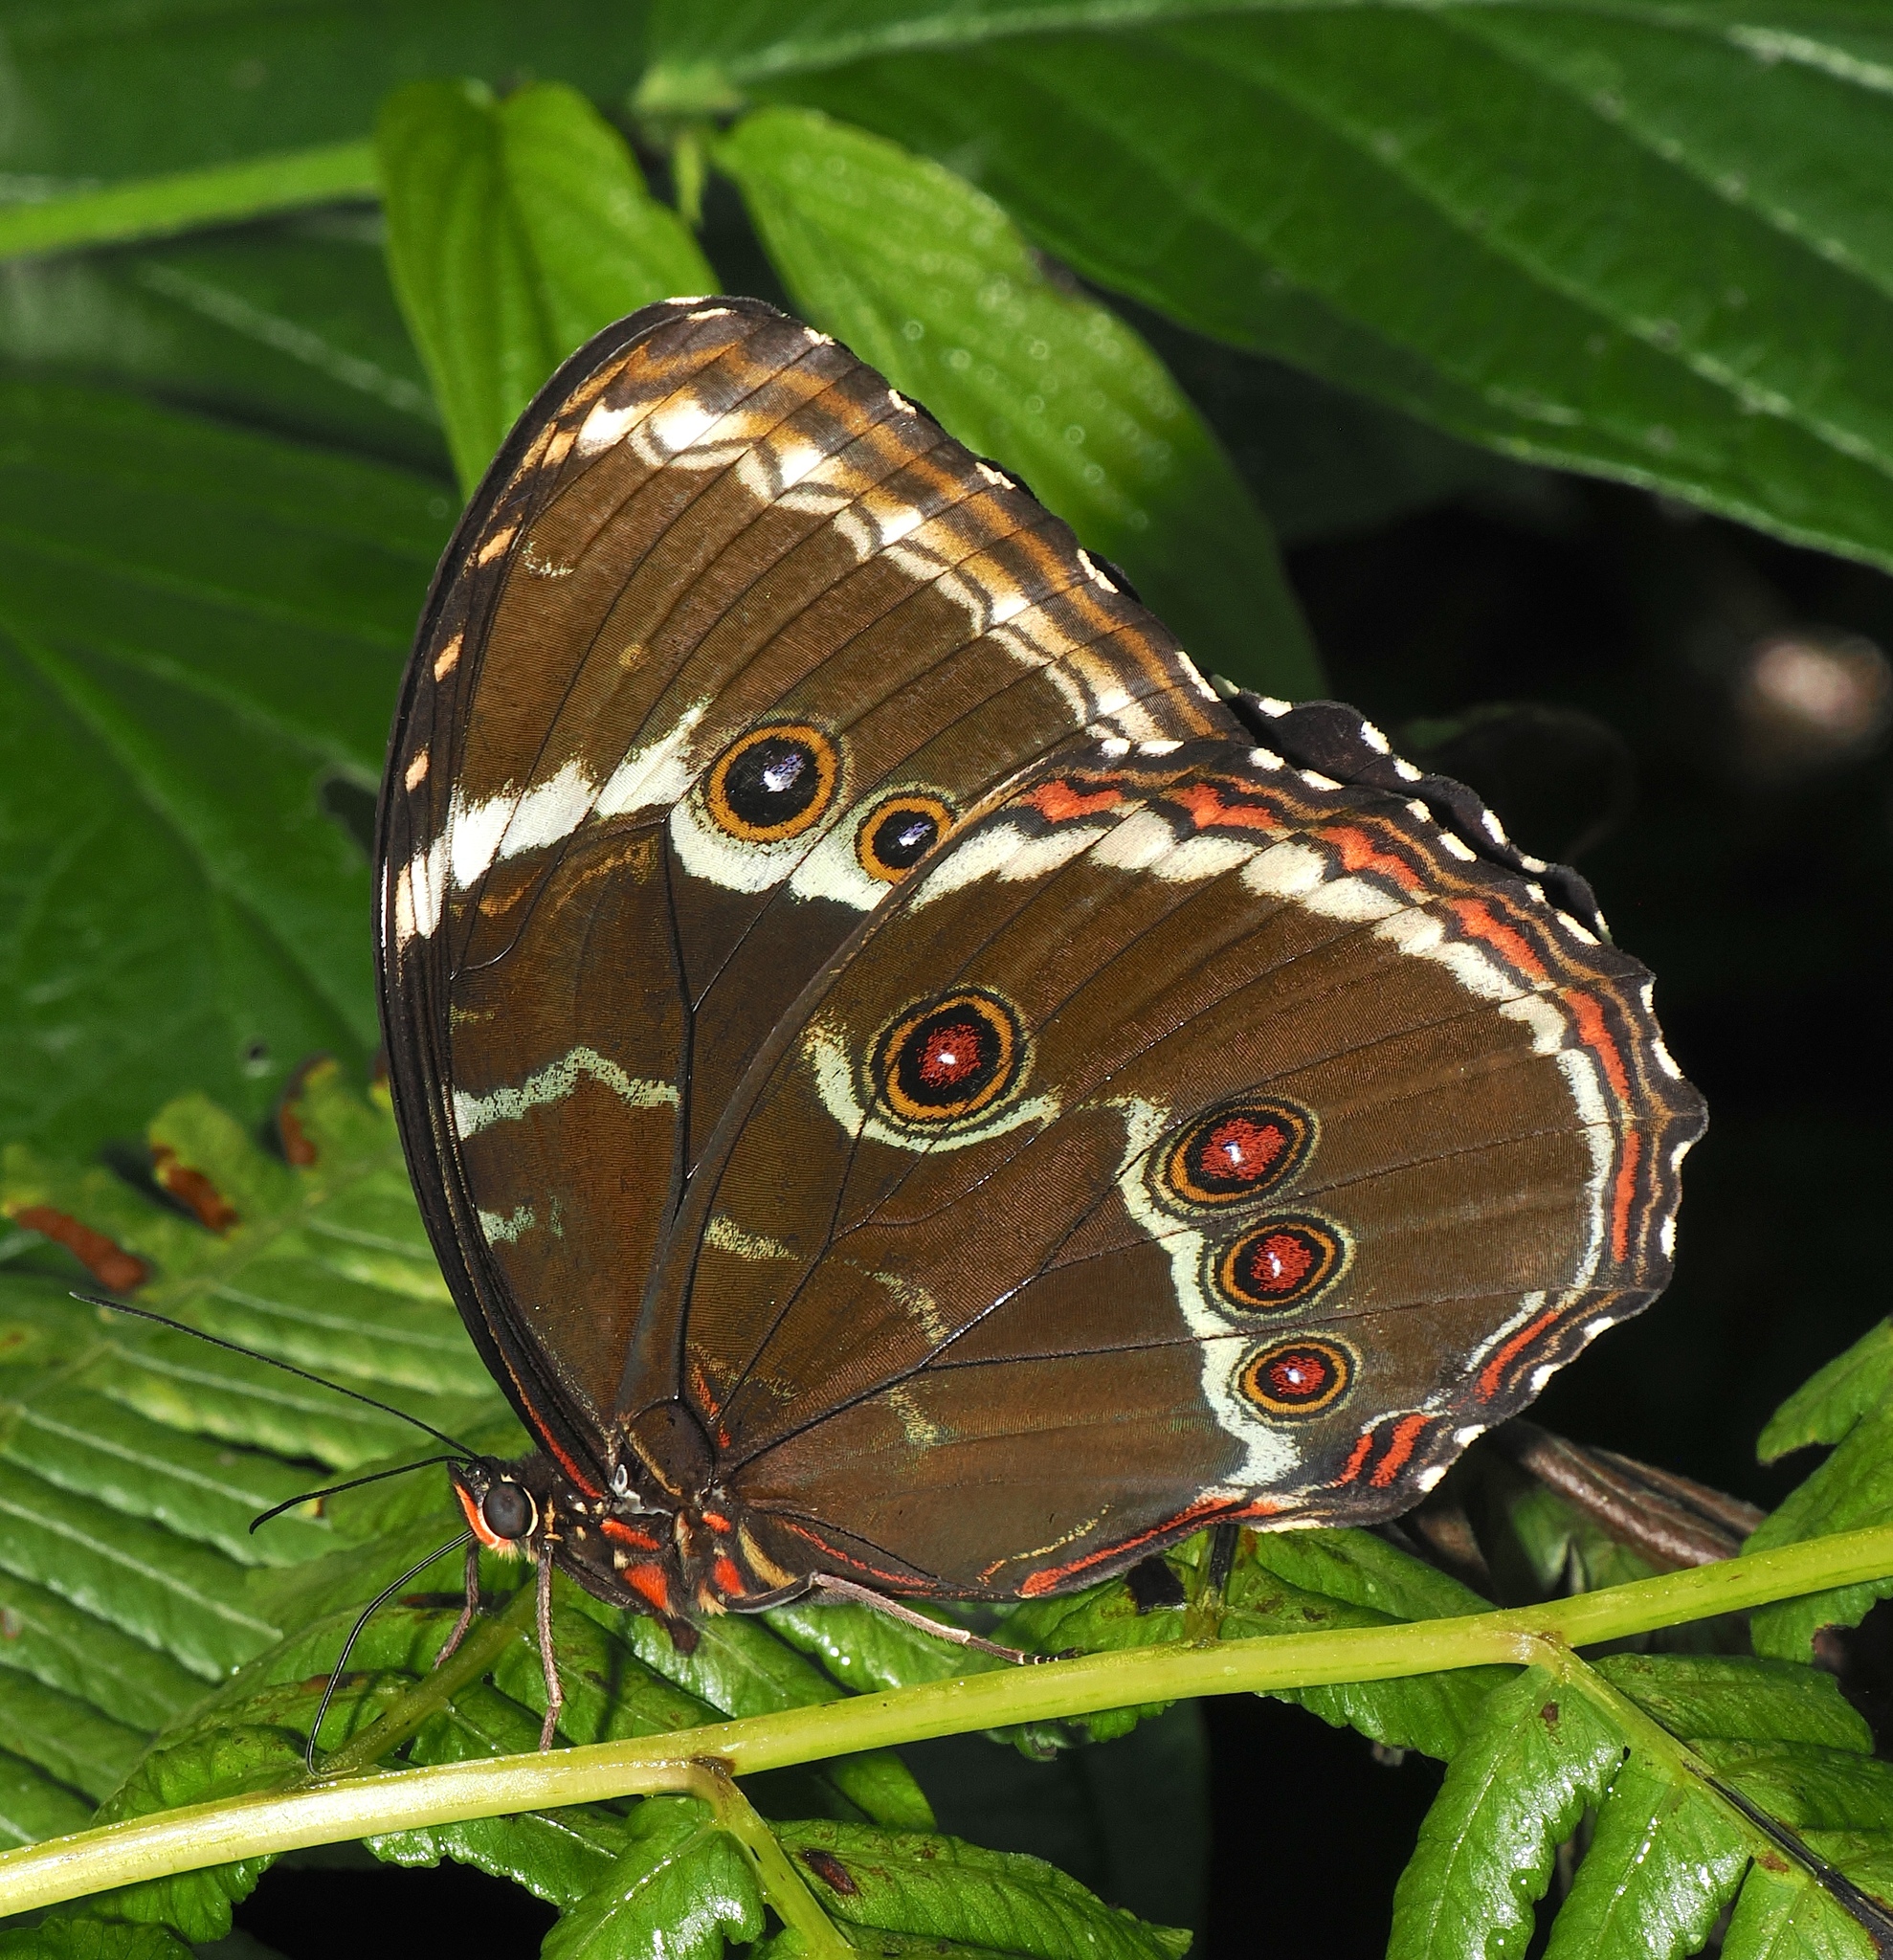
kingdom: Animalia
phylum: Arthropoda
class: Insecta
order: Lepidoptera
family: Nymphalidae
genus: Morpho
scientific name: Morpho helenor
